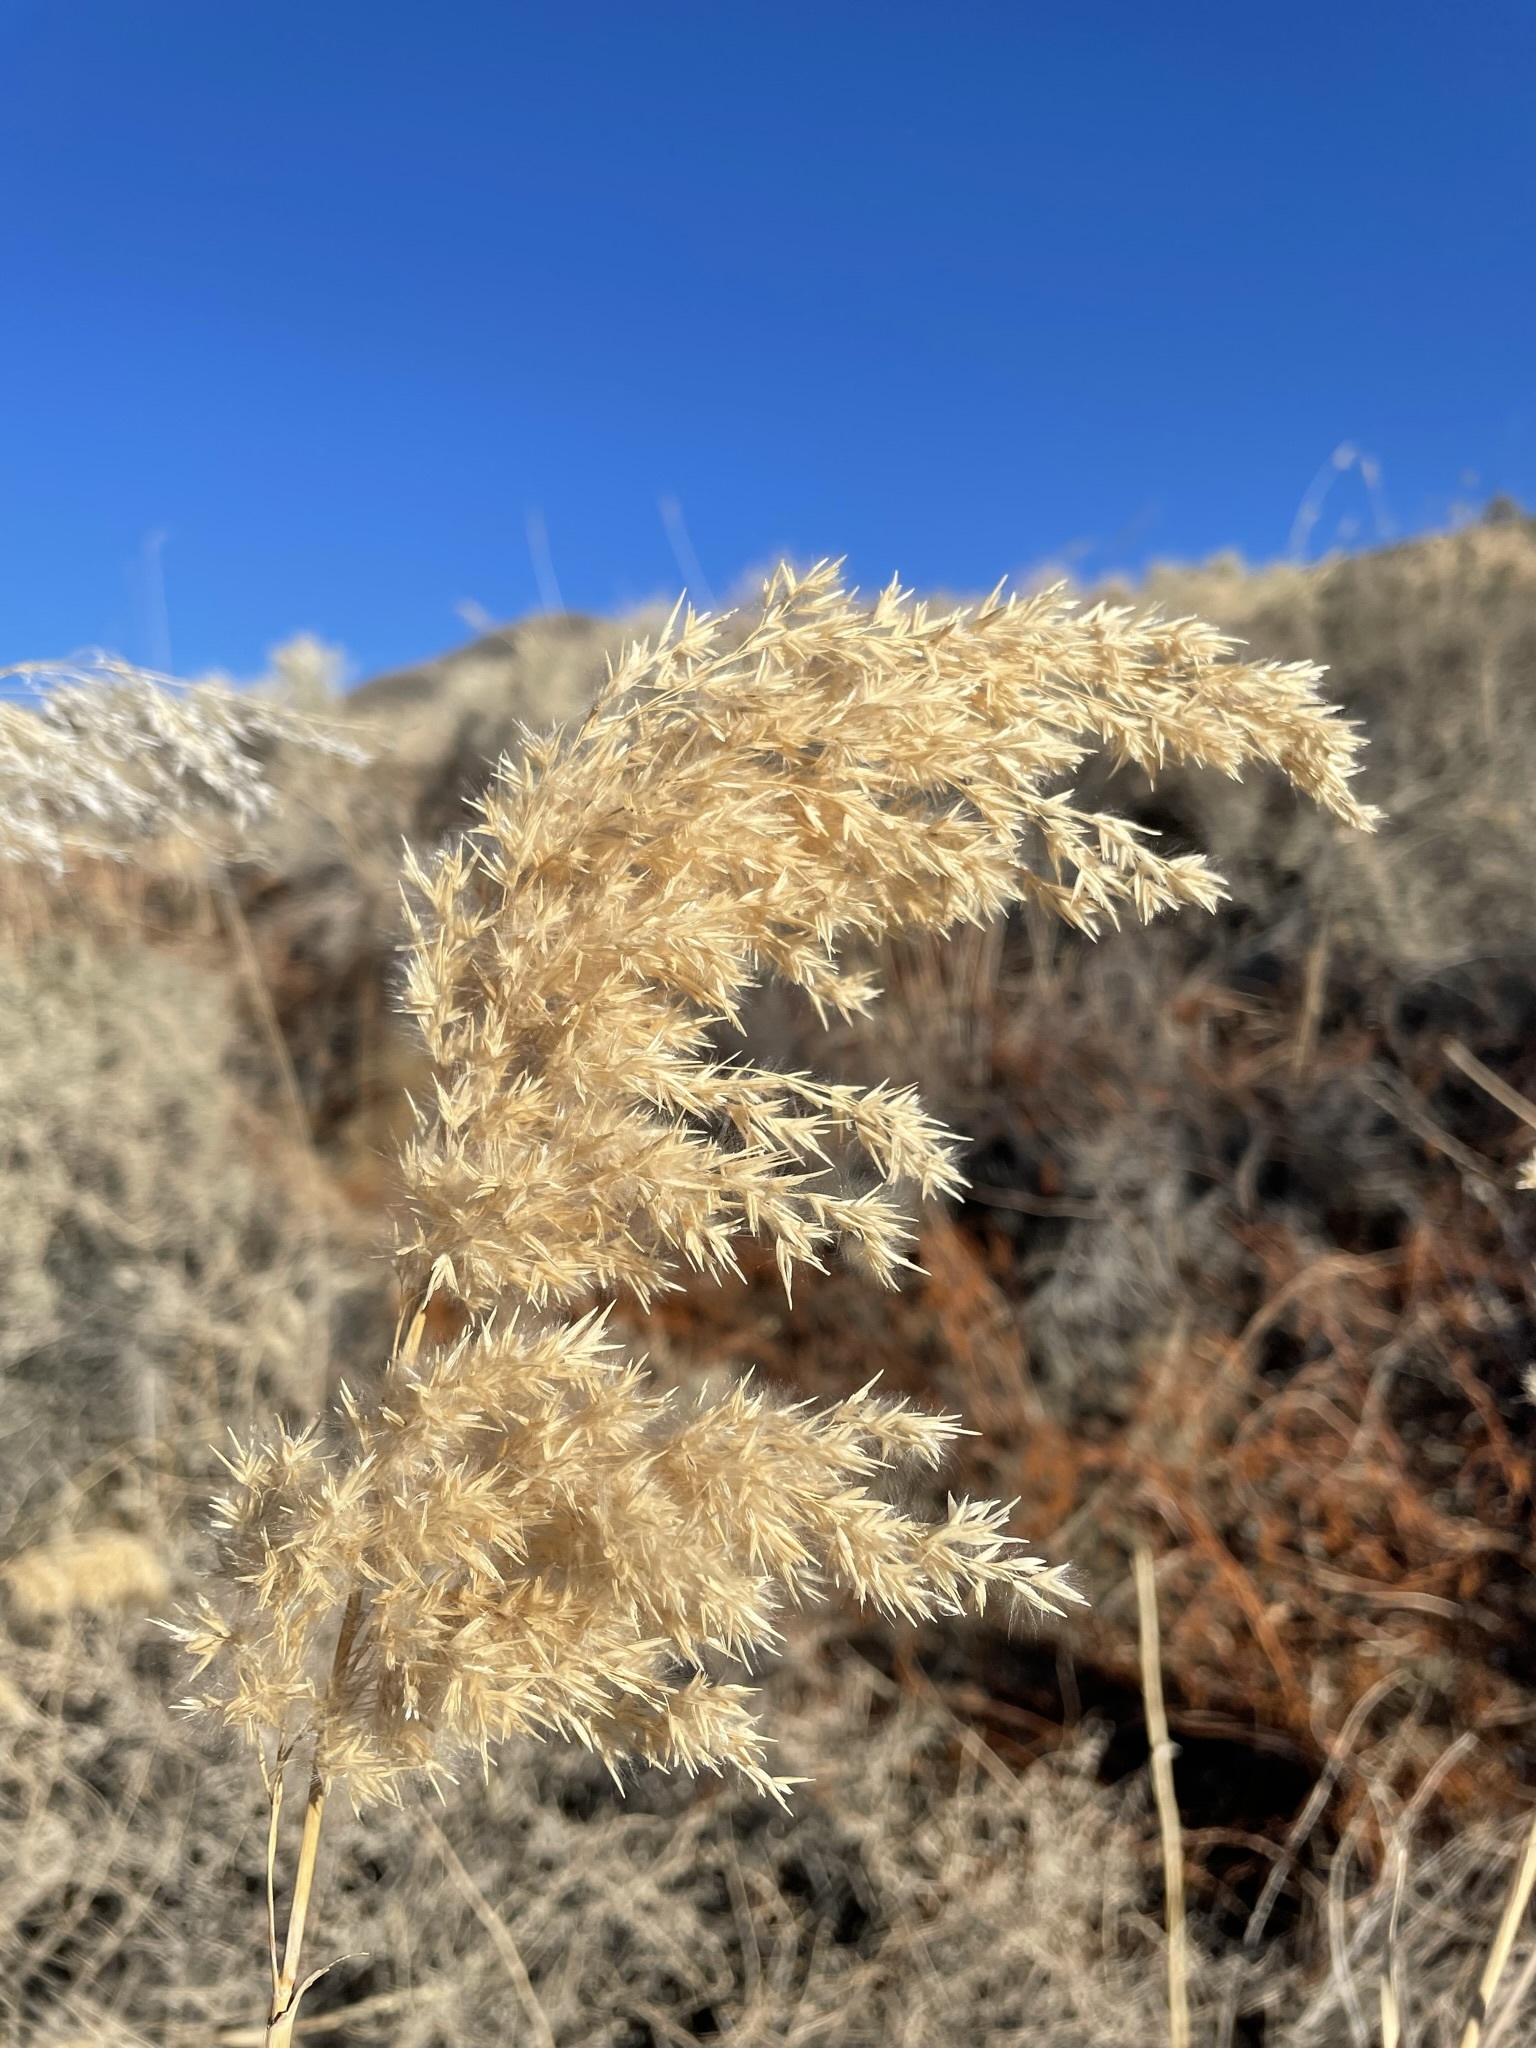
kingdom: Plantae
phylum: Tracheophyta
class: Liliopsida
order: Poales
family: Poaceae
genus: Phragmites
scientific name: Phragmites australis
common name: Common reed
